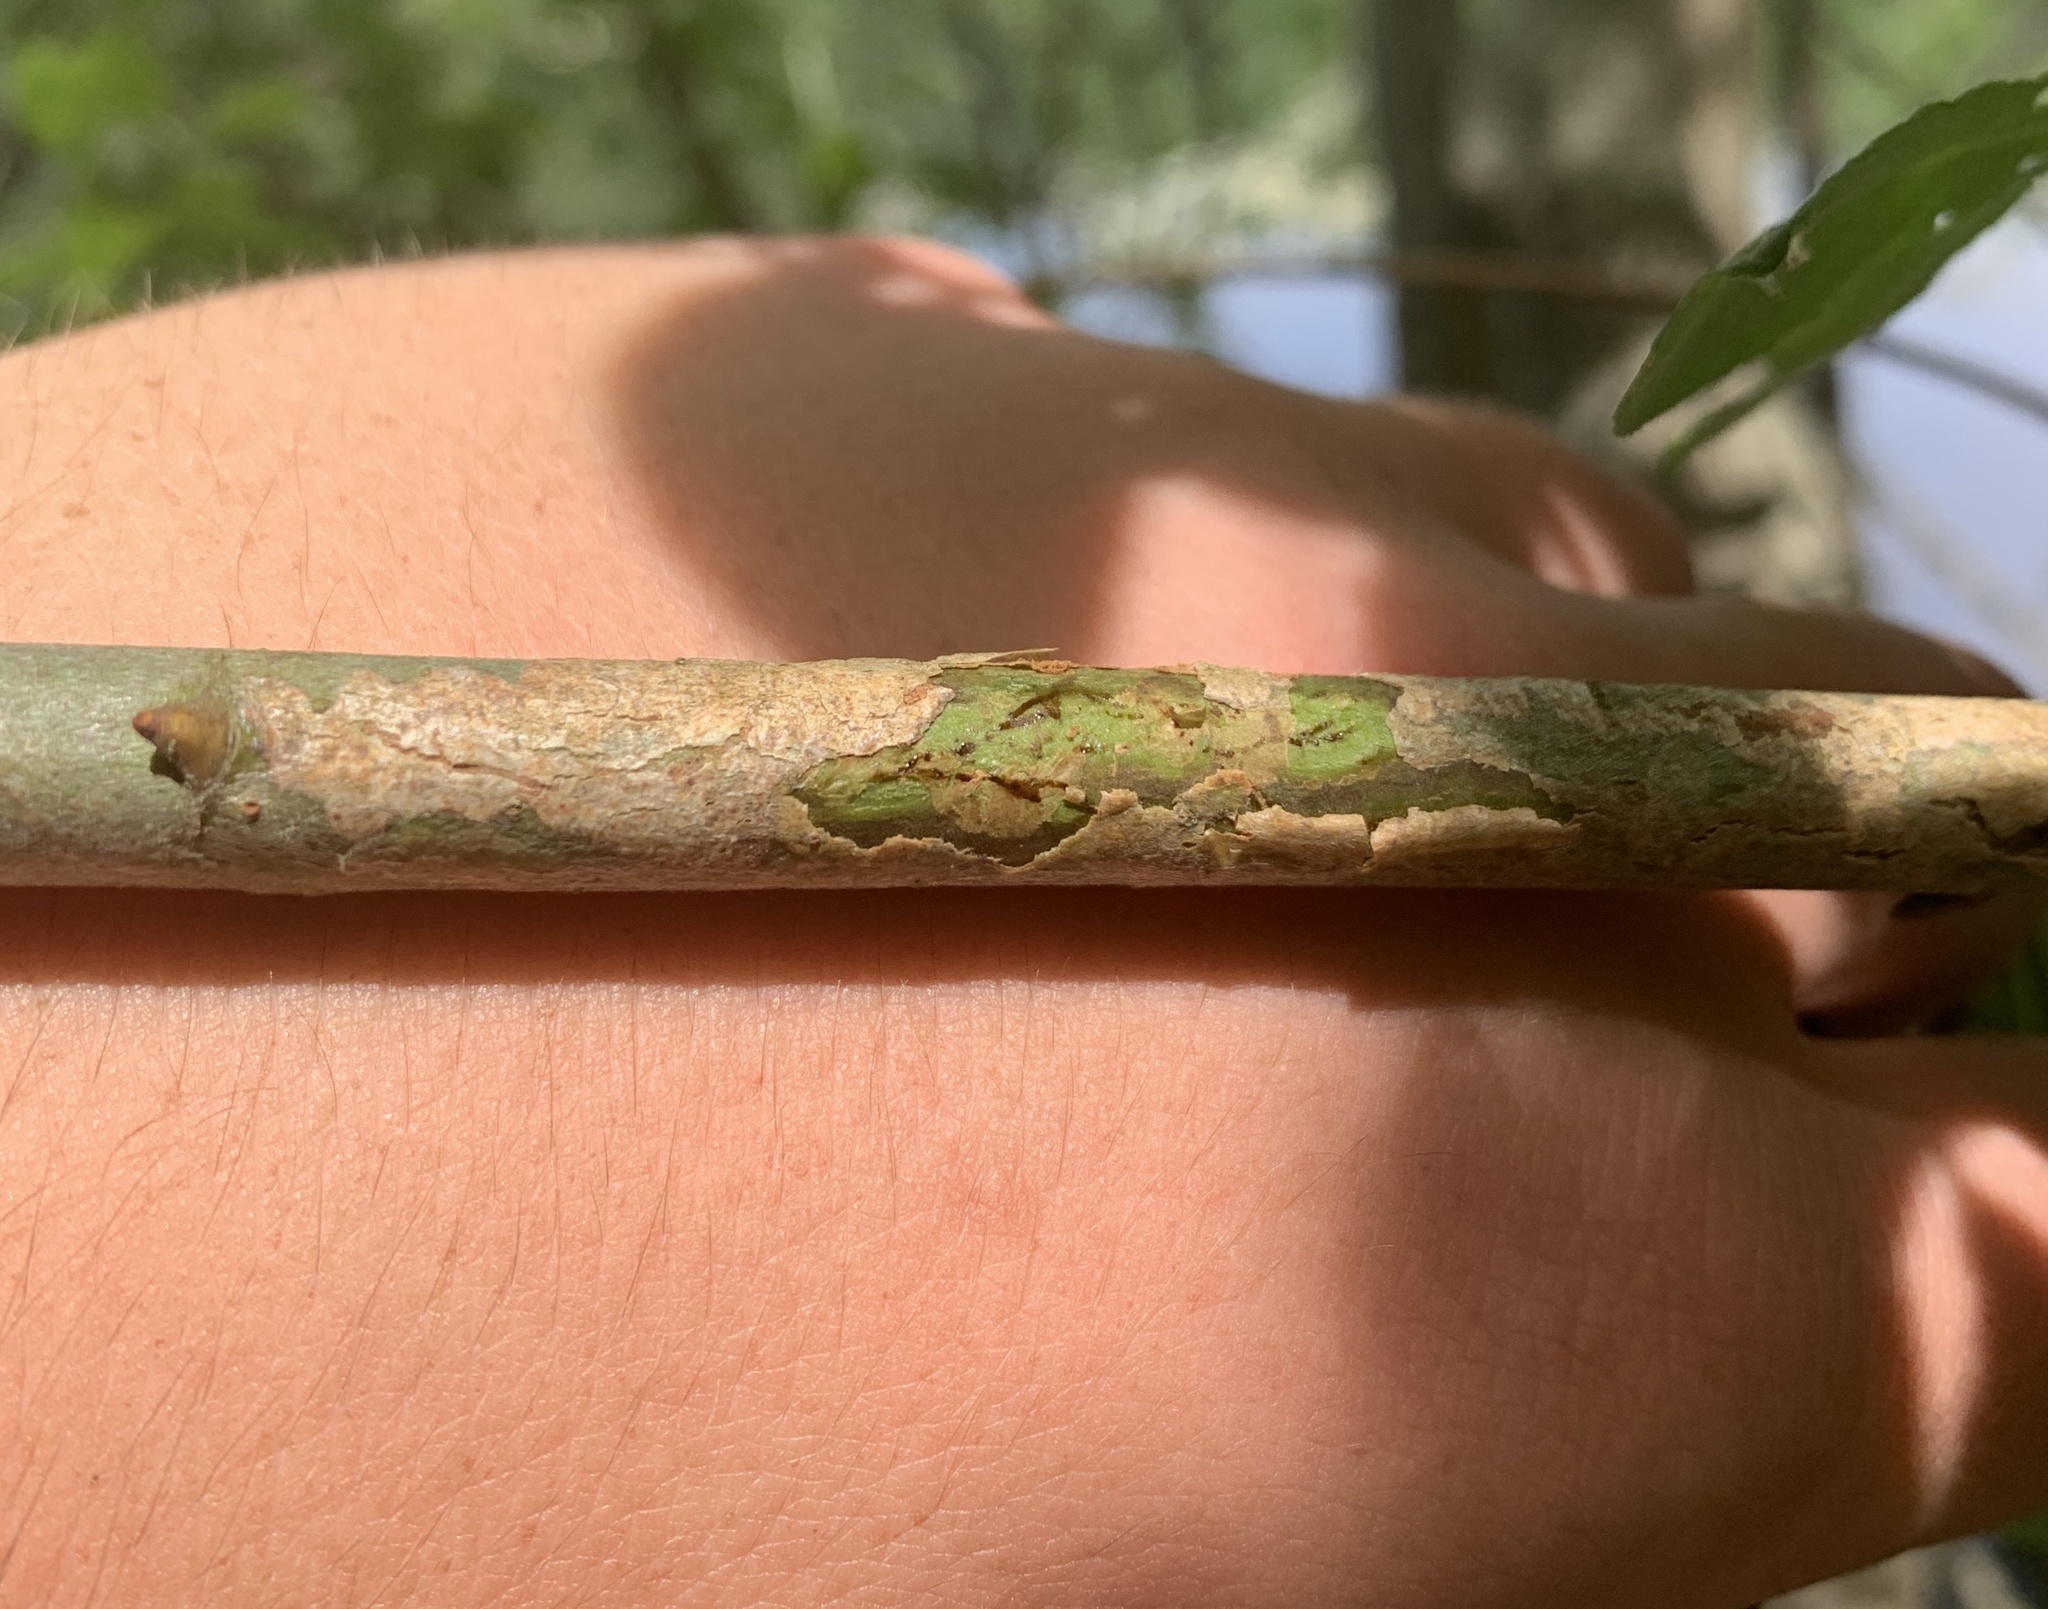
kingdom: Animalia
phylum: Arthropoda
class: Insecta
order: Lepidoptera
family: Gracillariidae
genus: Marmara
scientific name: Marmara salictella
